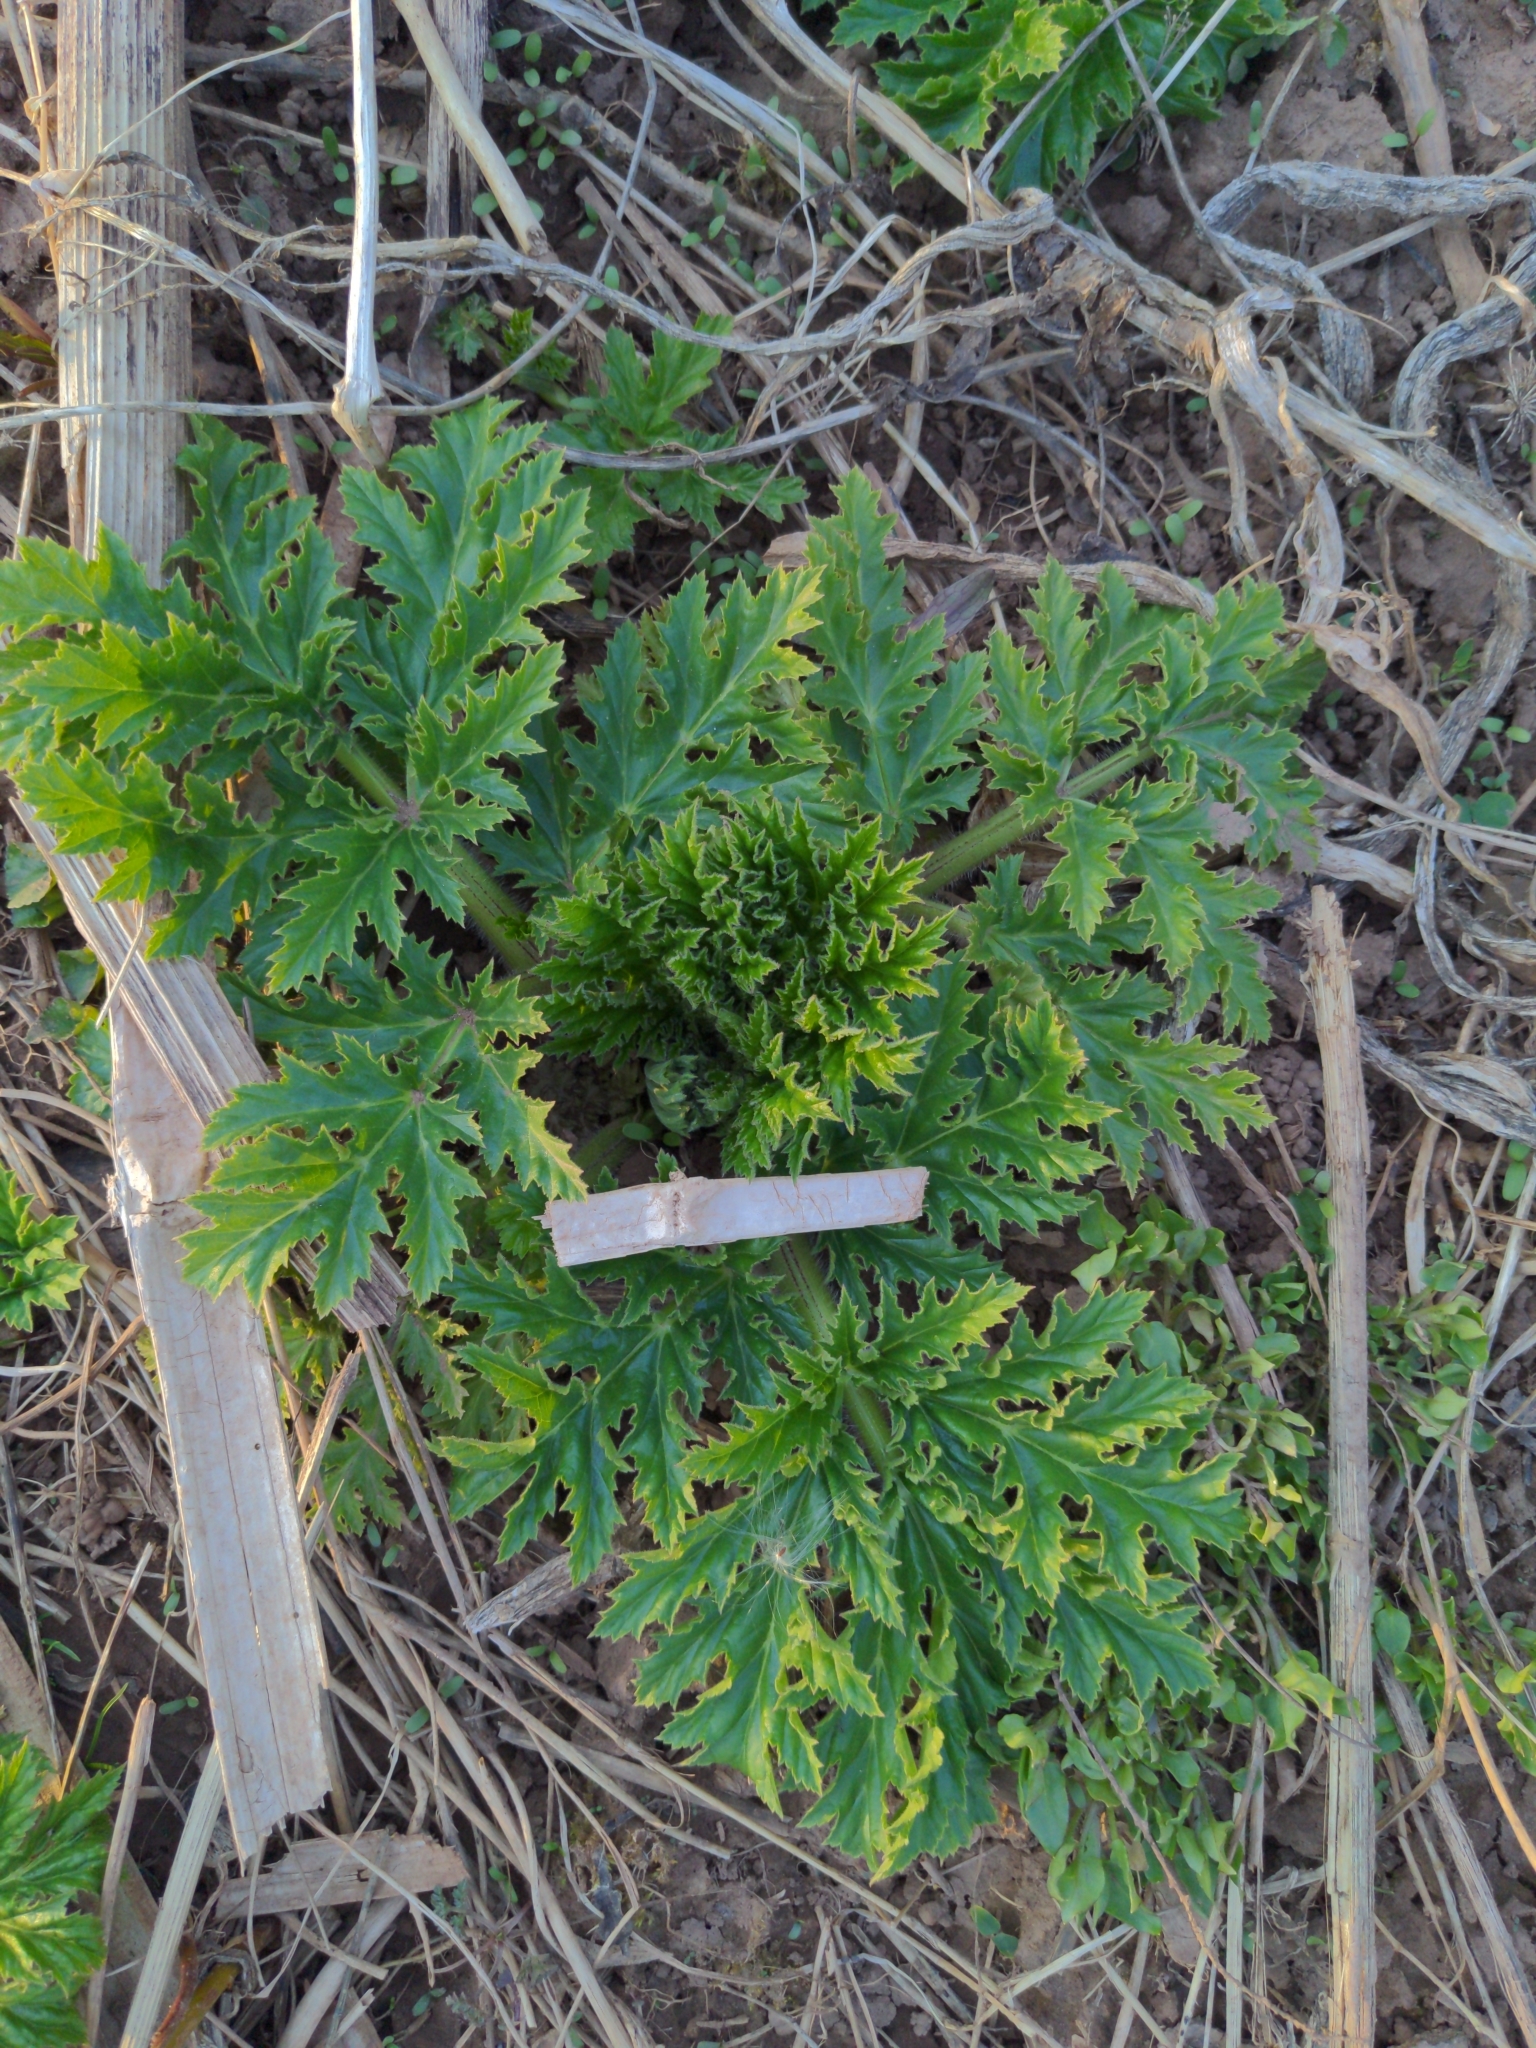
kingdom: Plantae
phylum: Tracheophyta
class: Magnoliopsida
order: Apiales
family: Apiaceae
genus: Heracleum
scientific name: Heracleum mantegazzianum
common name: Giant hogweed
